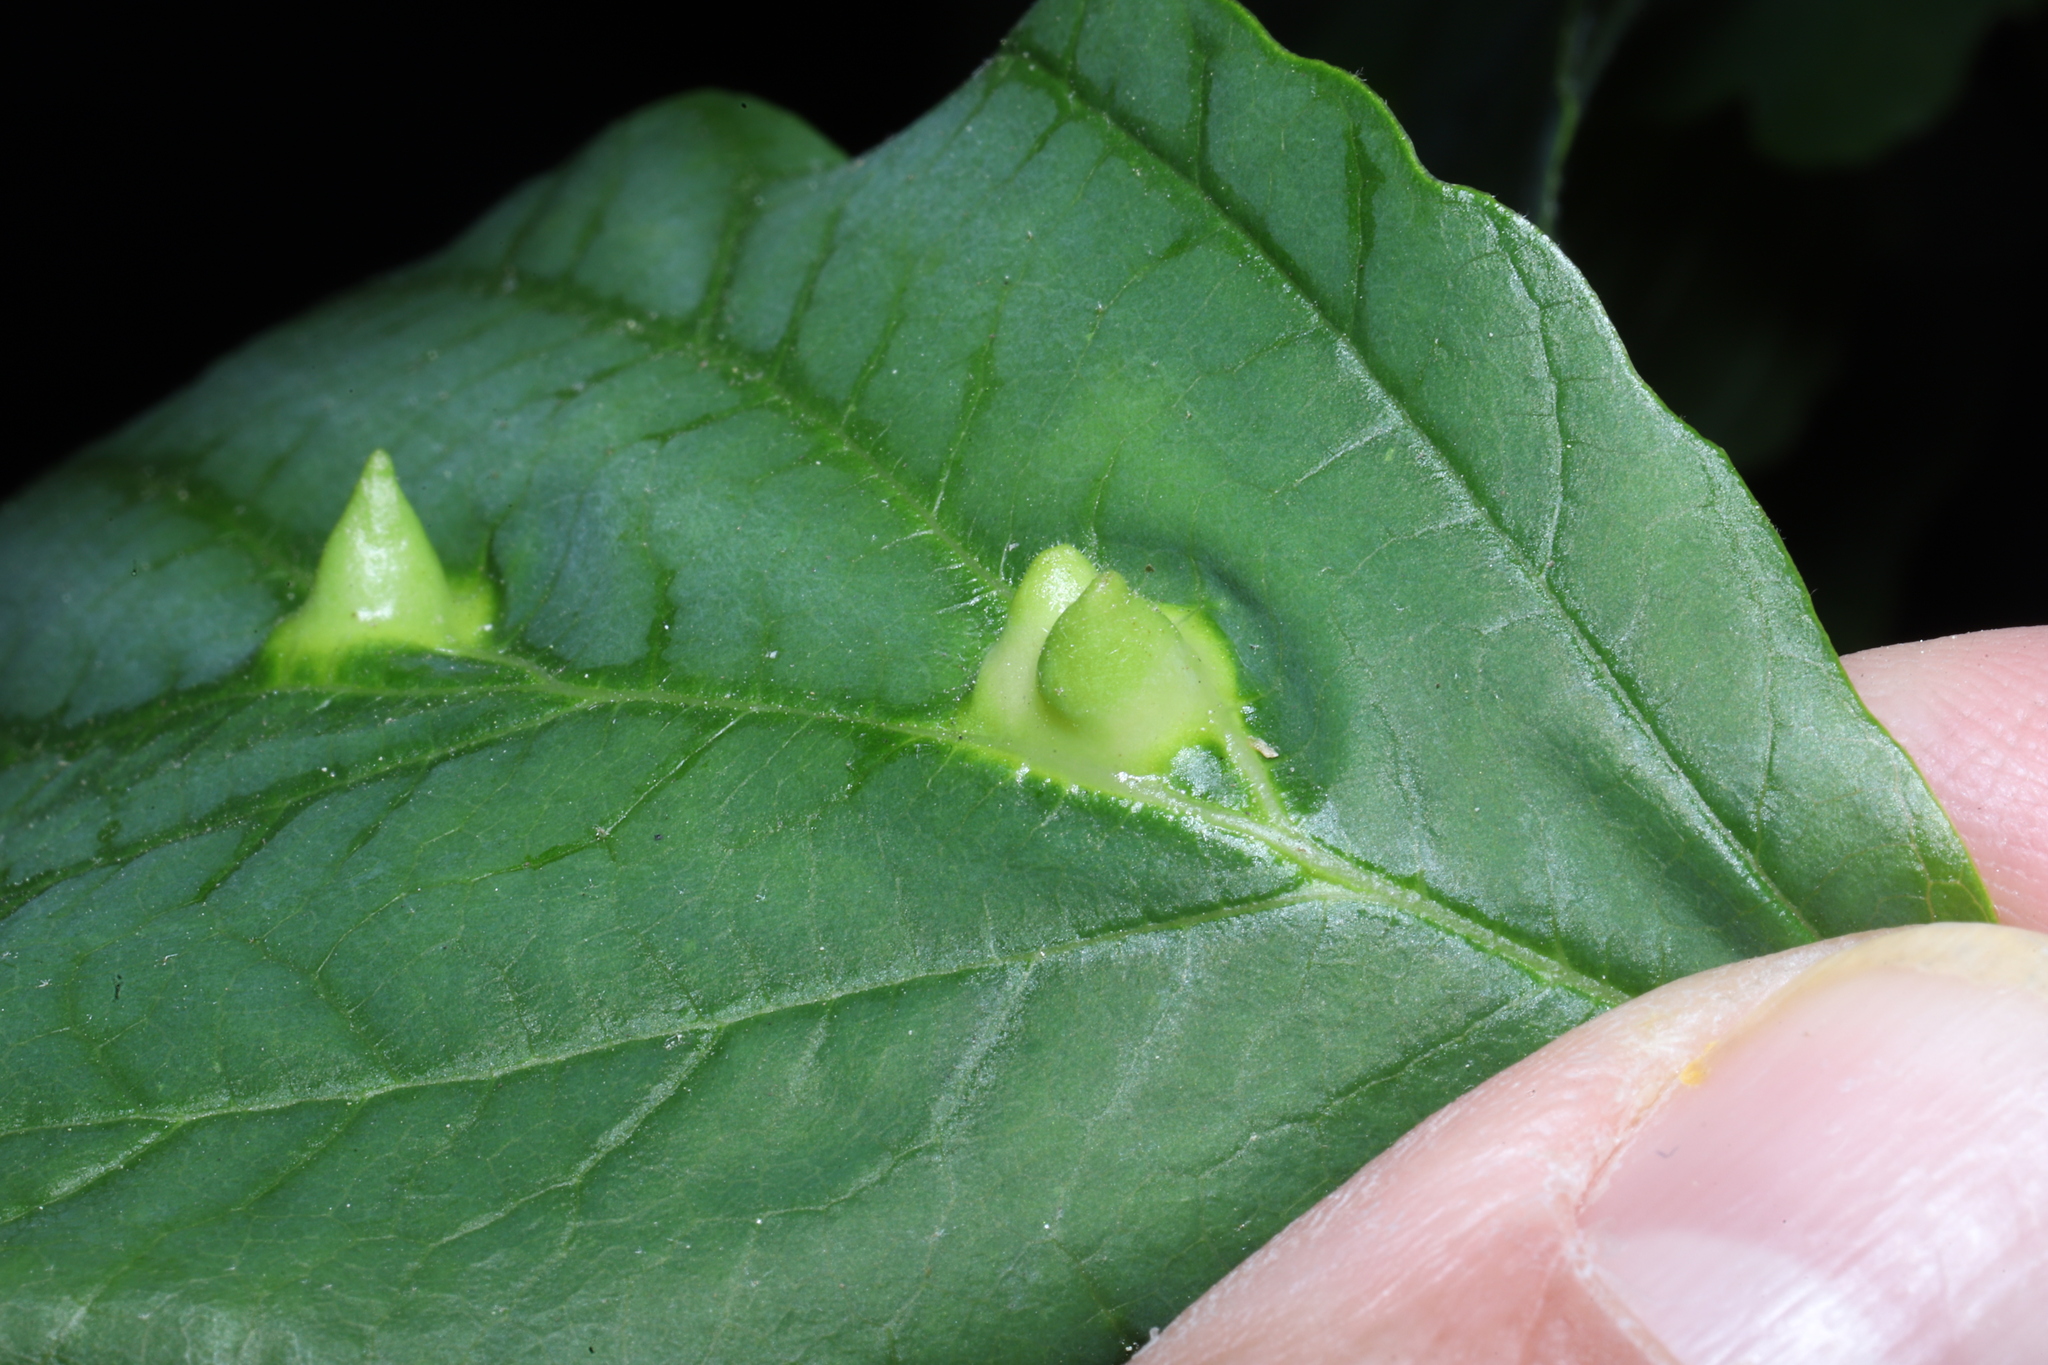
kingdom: Animalia
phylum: Arthropoda
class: Insecta
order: Hemiptera
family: Aphididae
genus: Hormaphis
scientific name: Hormaphis hamamelidis
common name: Witch-hazel cone gall aphid
